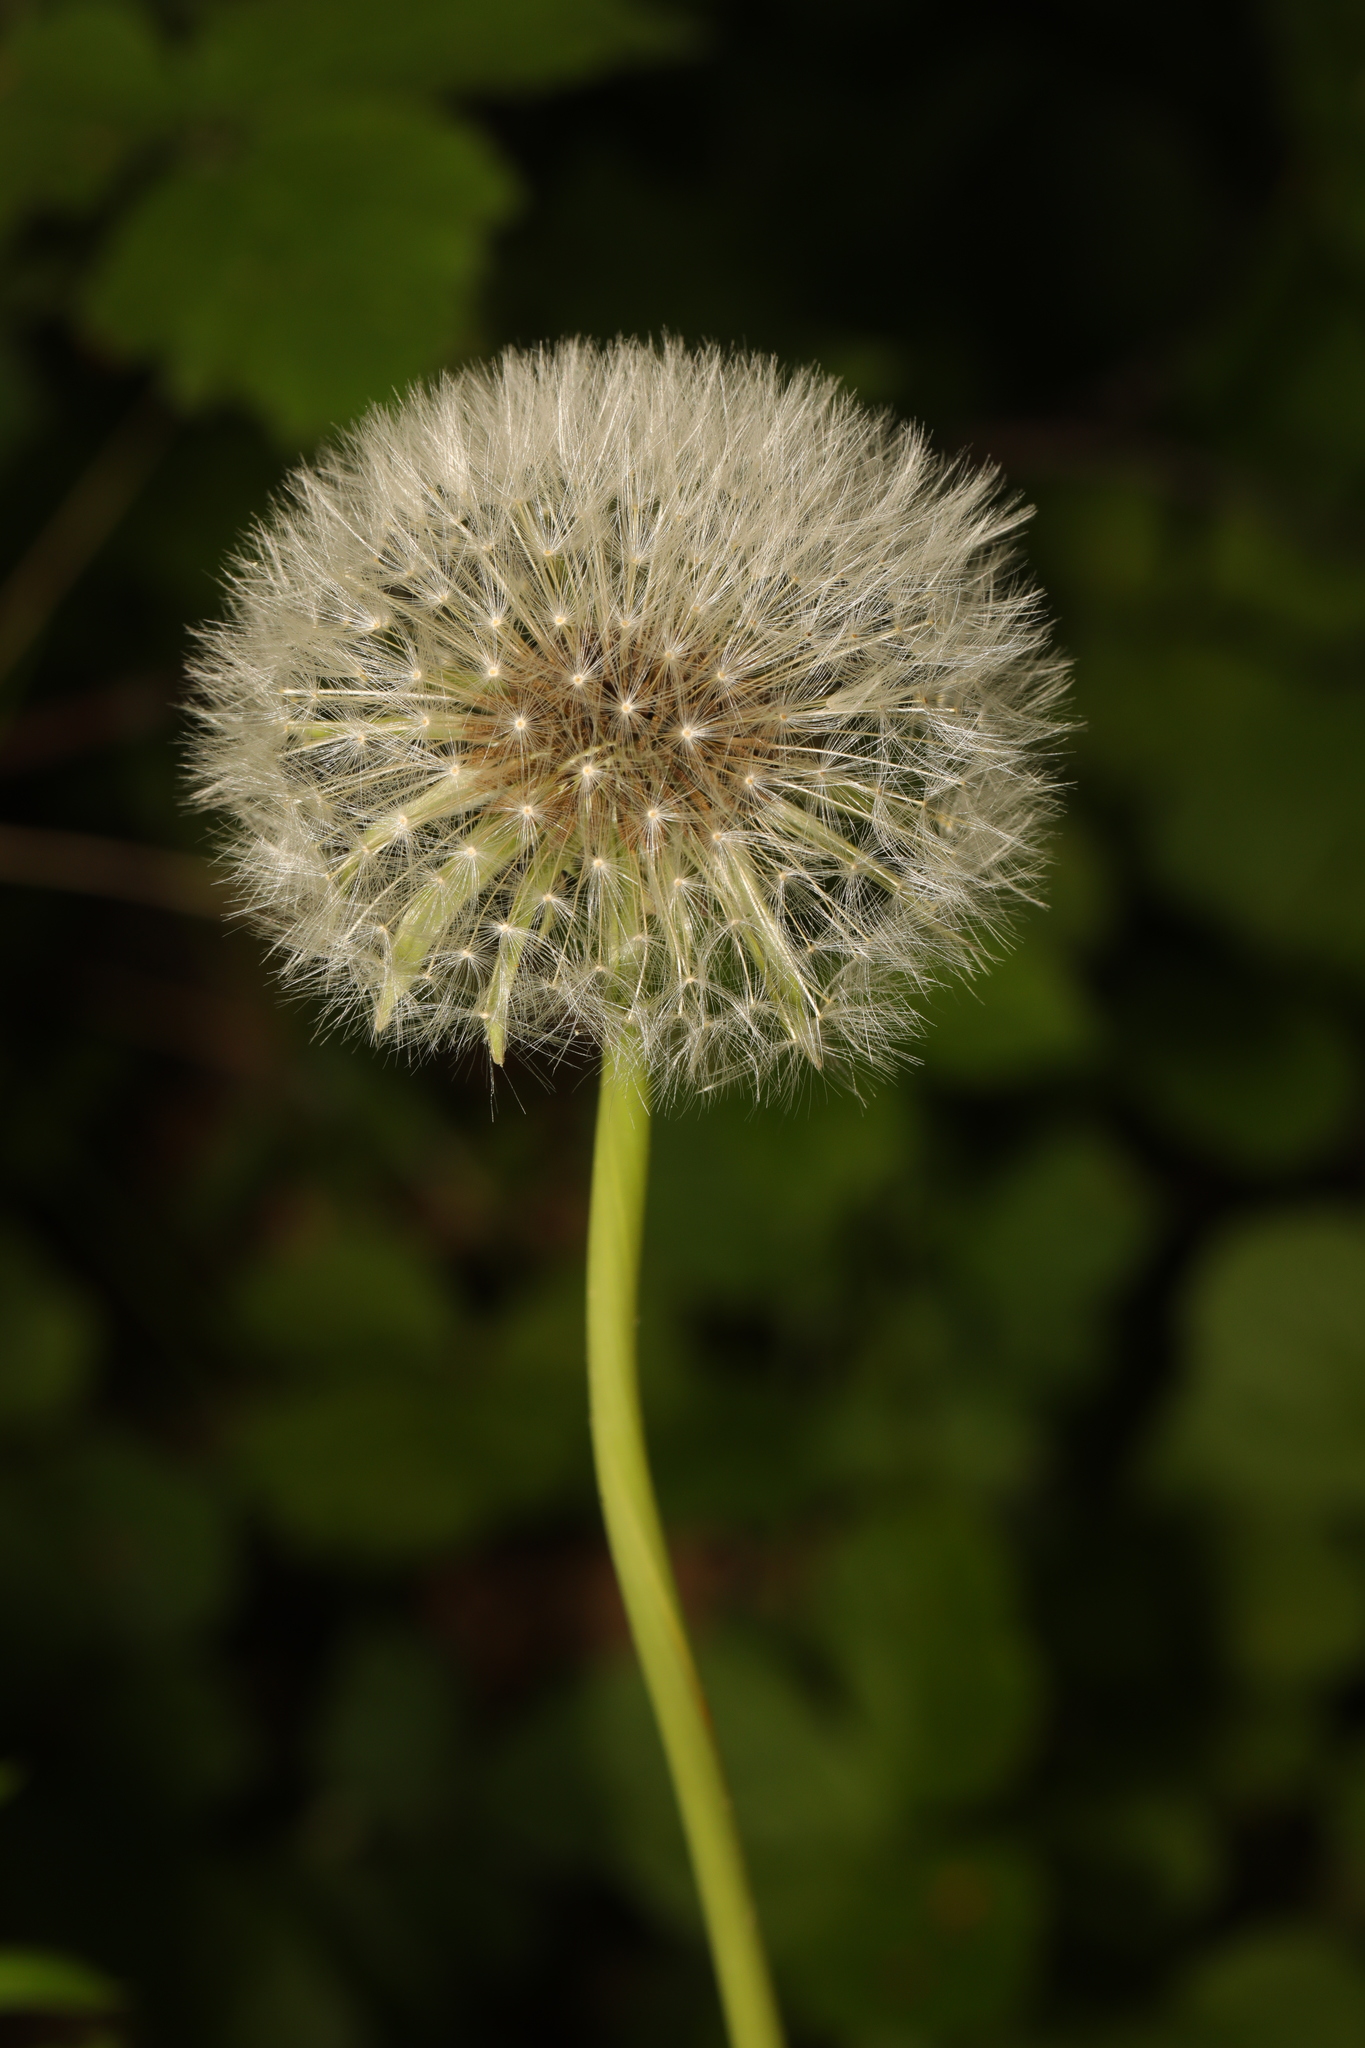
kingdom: Plantae
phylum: Tracheophyta
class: Magnoliopsida
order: Asterales
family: Asteraceae
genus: Taraxacum
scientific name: Taraxacum officinale
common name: Common dandelion
